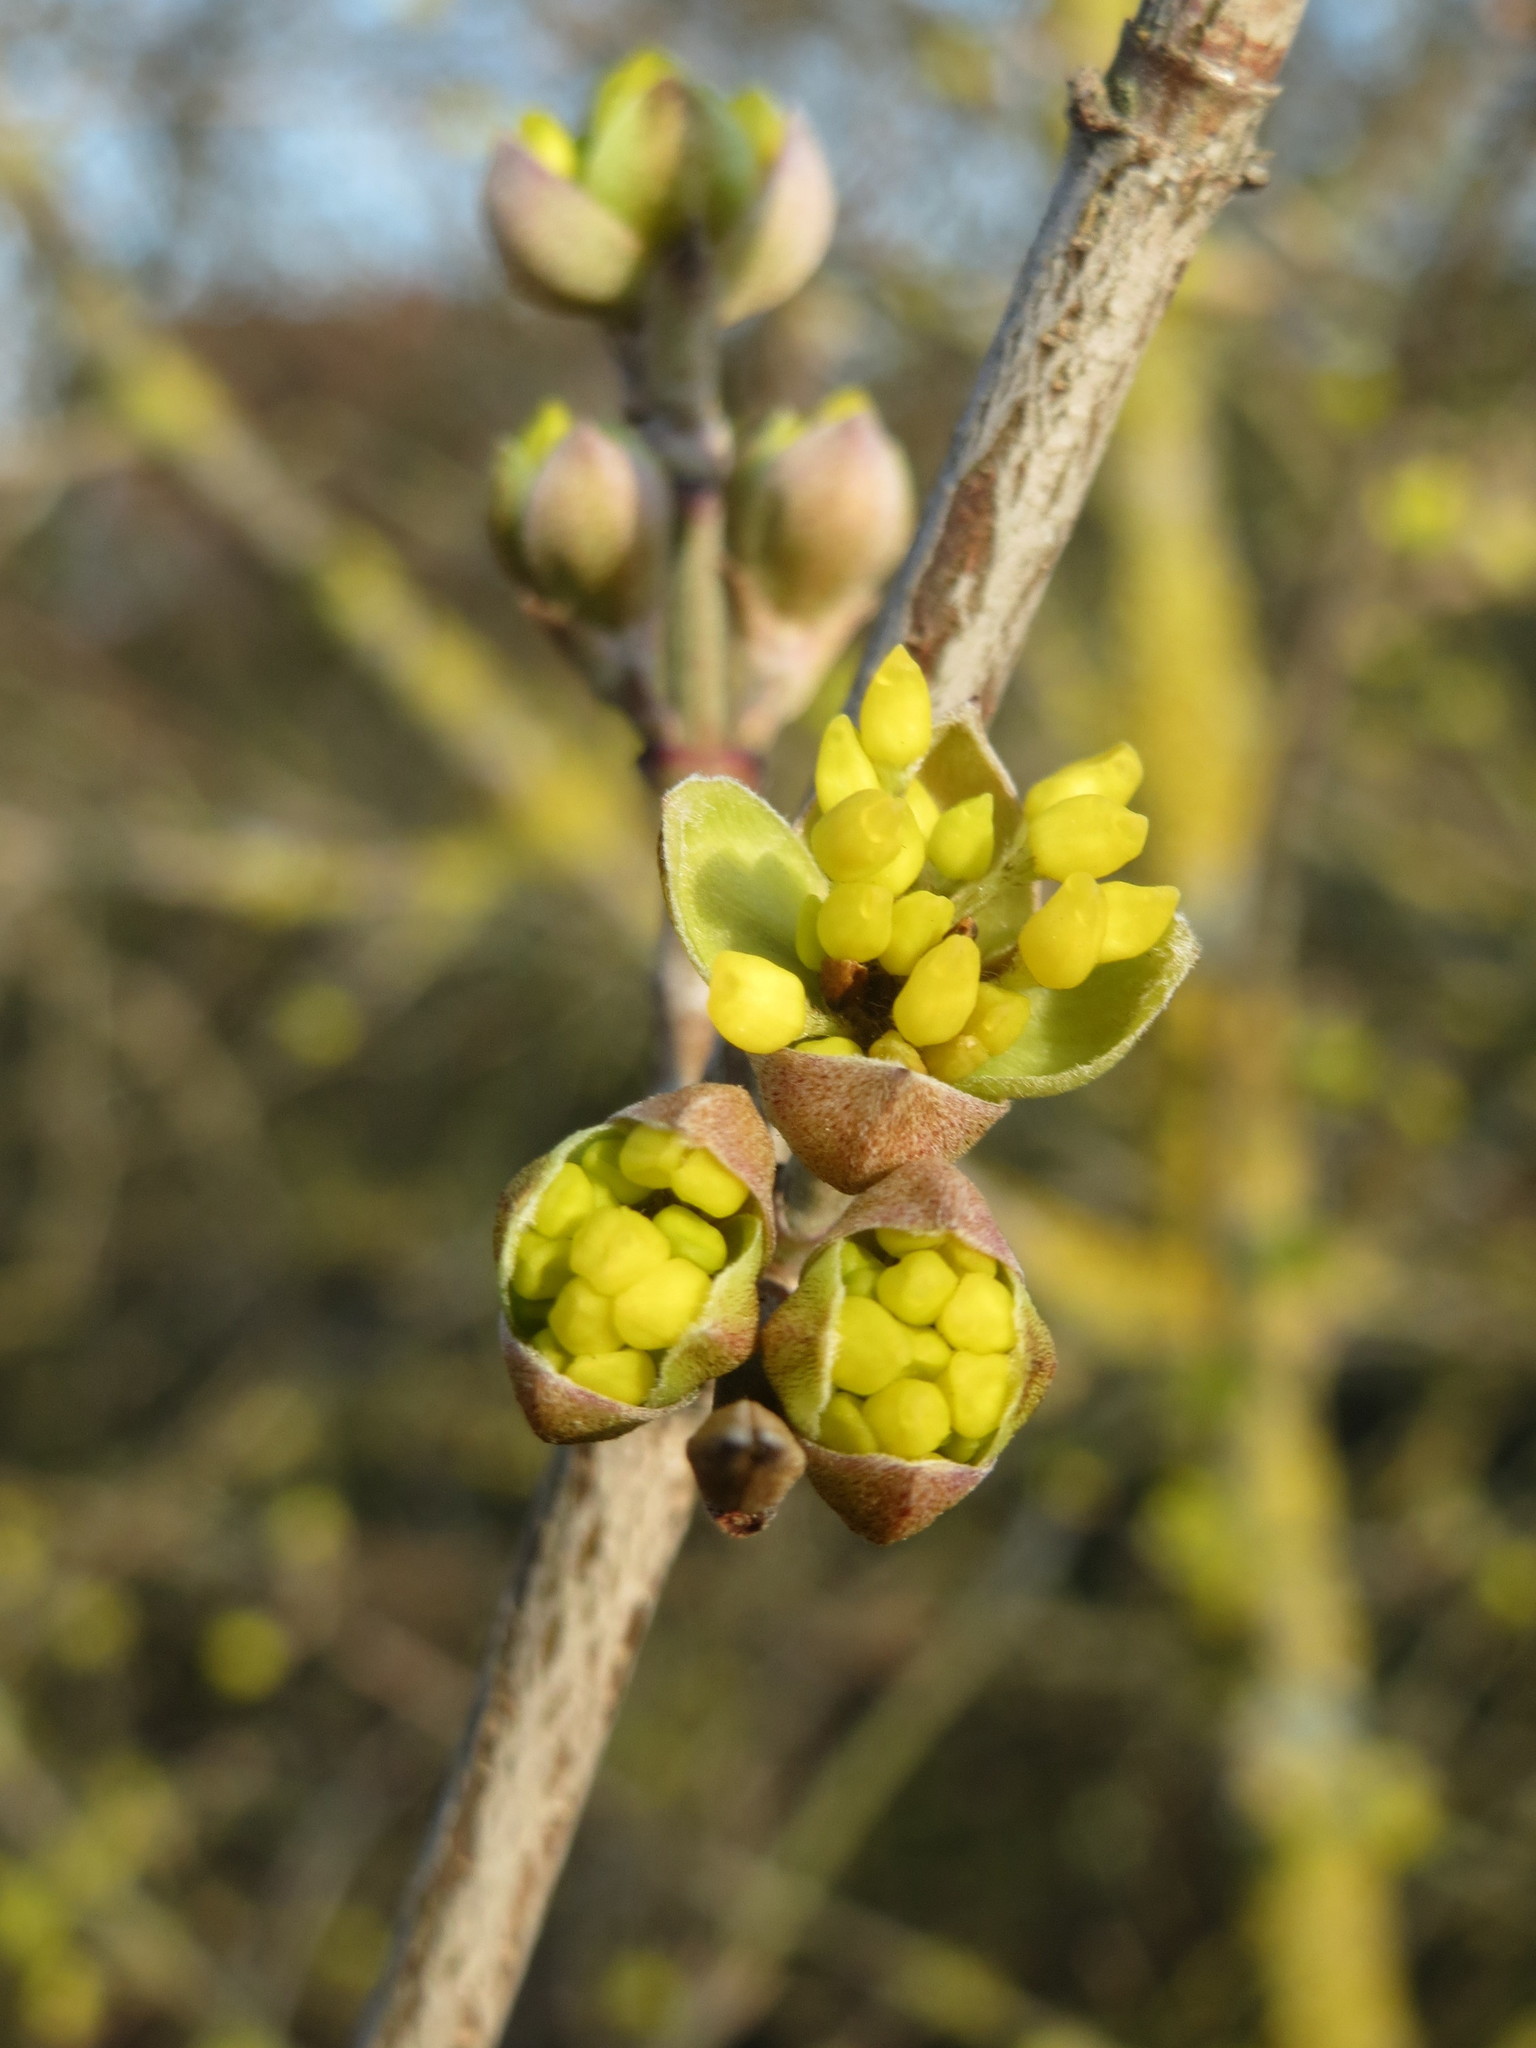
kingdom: Plantae
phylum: Tracheophyta
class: Magnoliopsida
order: Cornales
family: Cornaceae
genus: Cornus
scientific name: Cornus mas
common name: Cornelian-cherry
